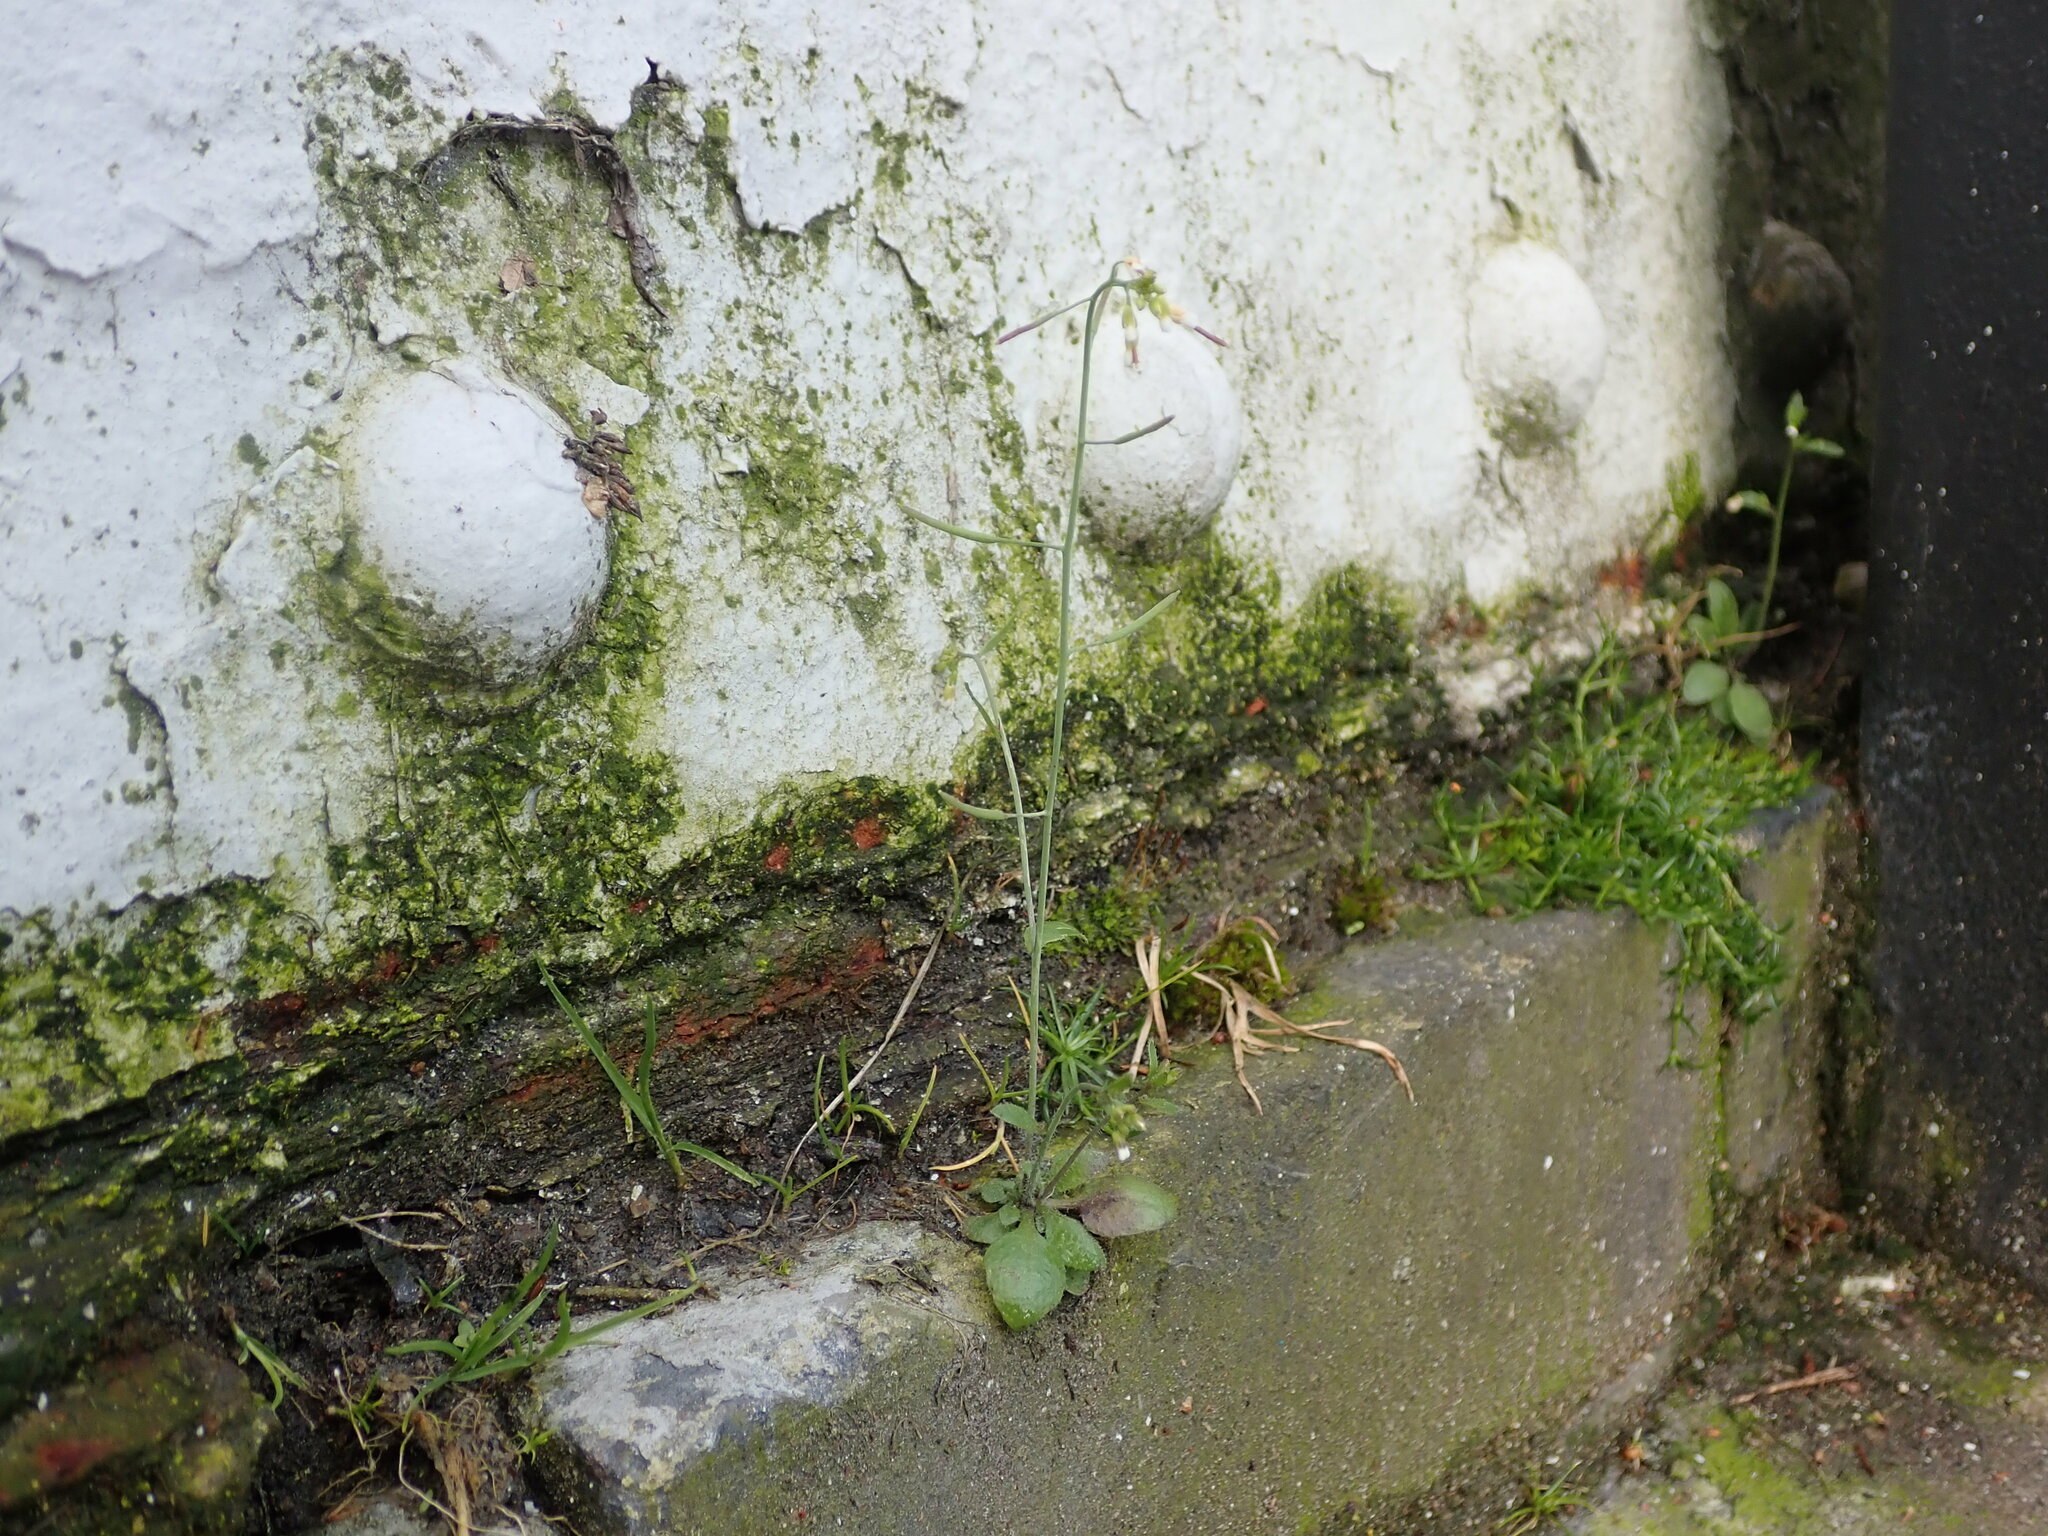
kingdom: Plantae
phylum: Tracheophyta
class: Magnoliopsida
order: Brassicales
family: Brassicaceae
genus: Arabidopsis
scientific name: Arabidopsis thaliana
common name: Thale cress
